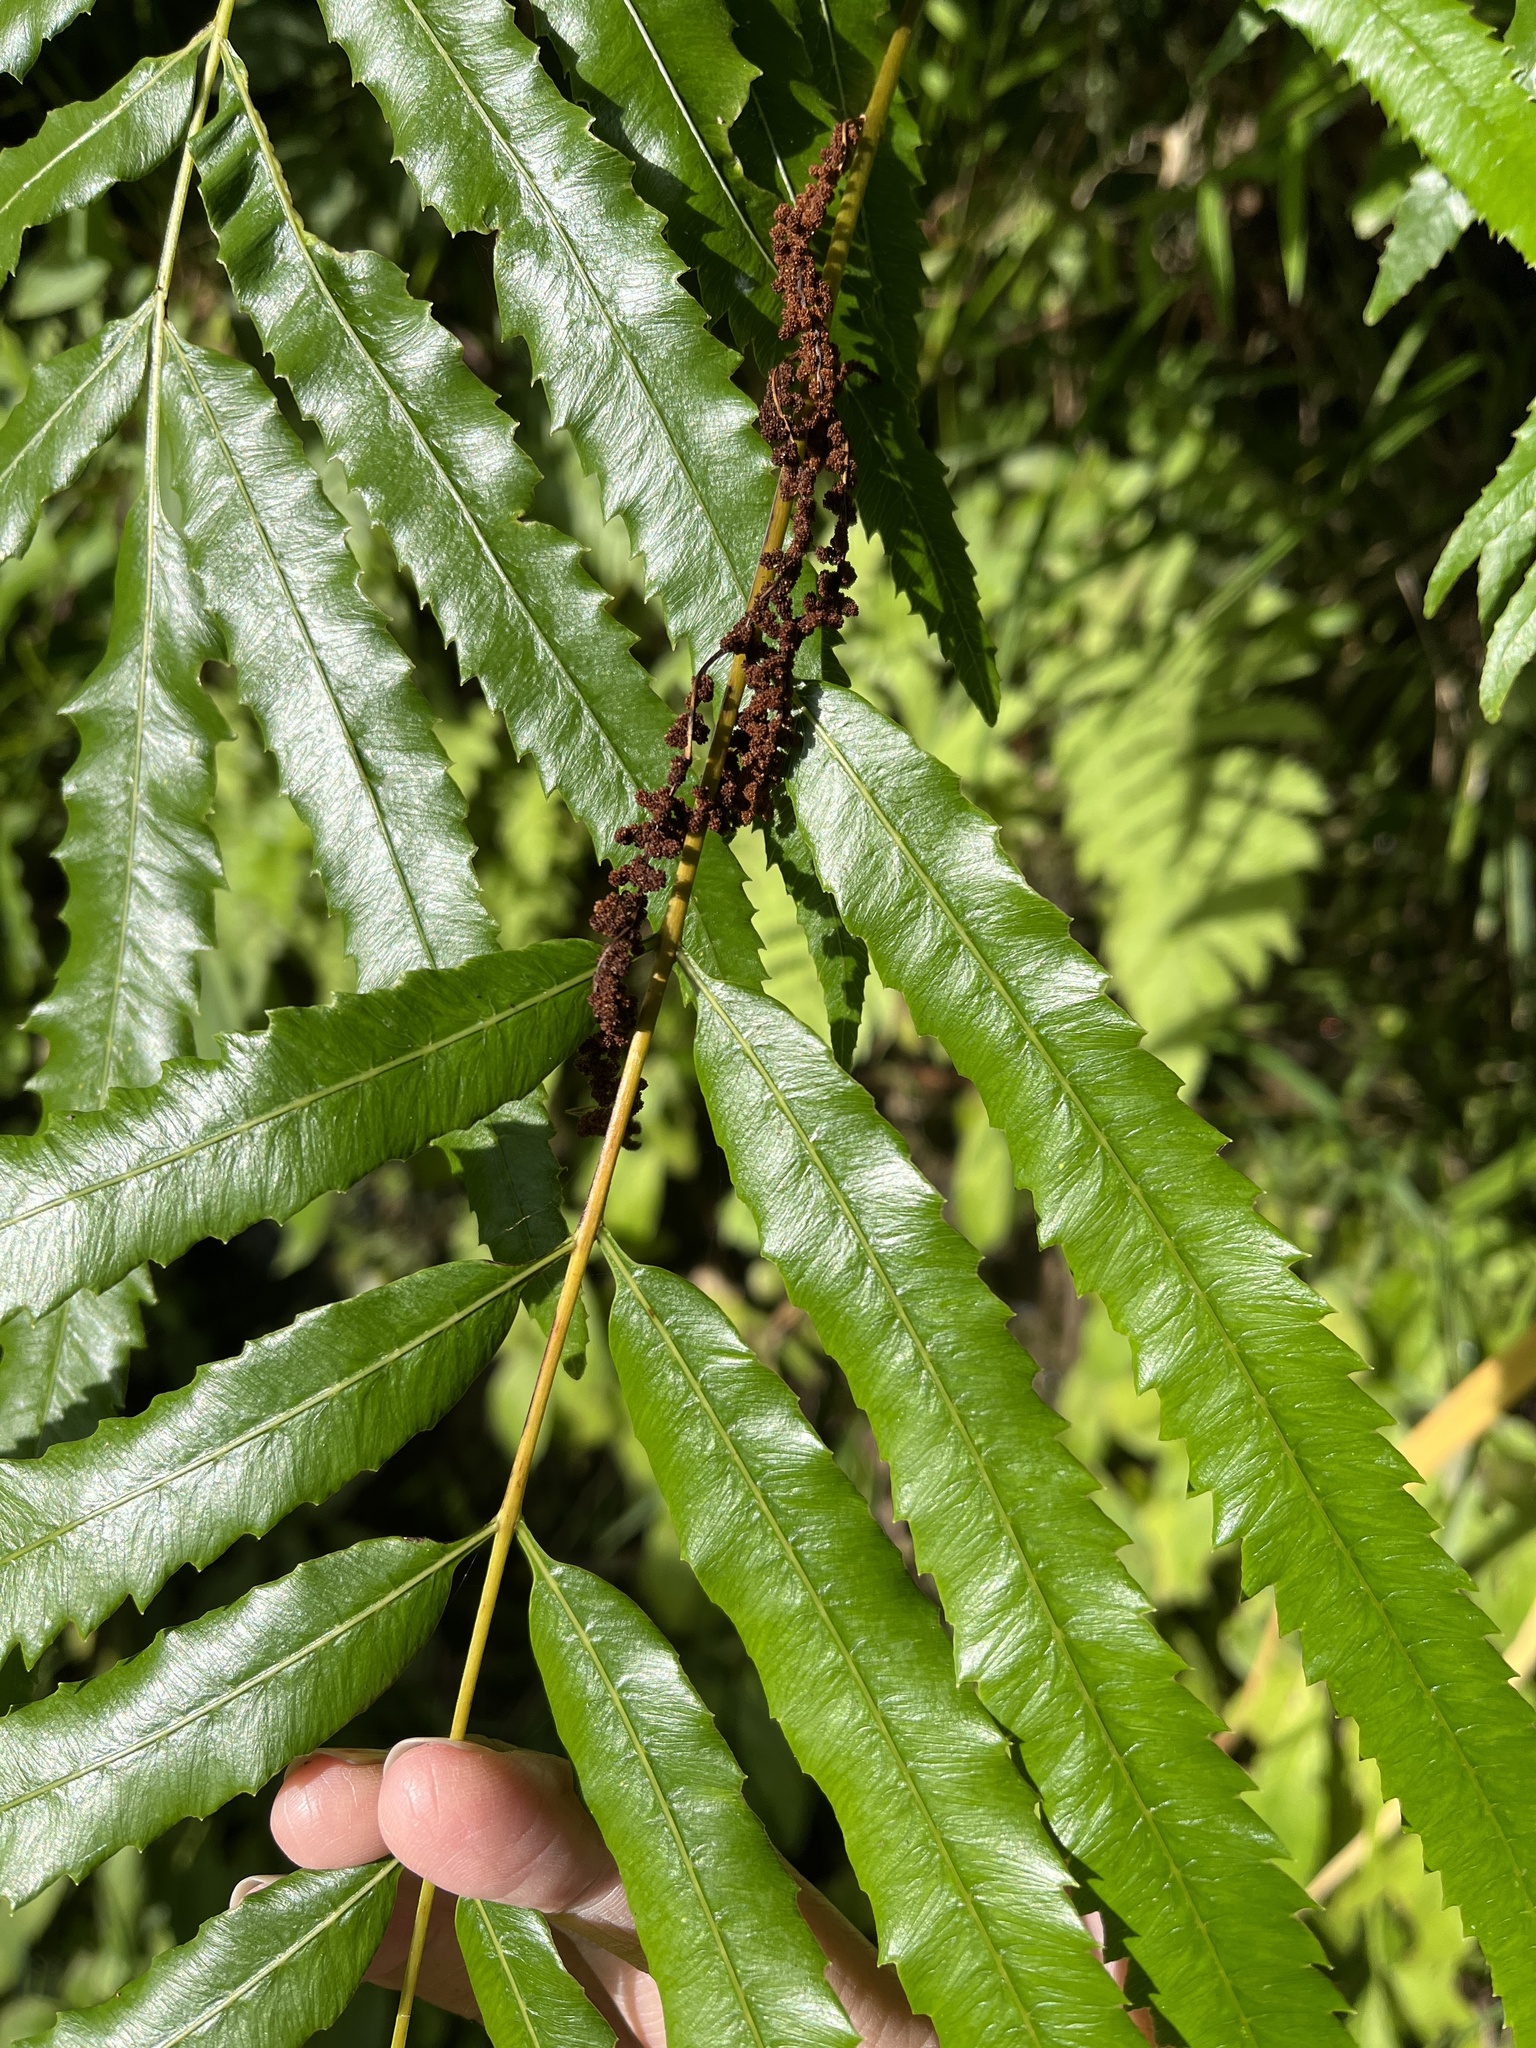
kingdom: Plantae
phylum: Tracheophyta
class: Polypodiopsida
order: Osmundales
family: Osmundaceae
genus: Plenasium
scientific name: Plenasium banksiifolium
